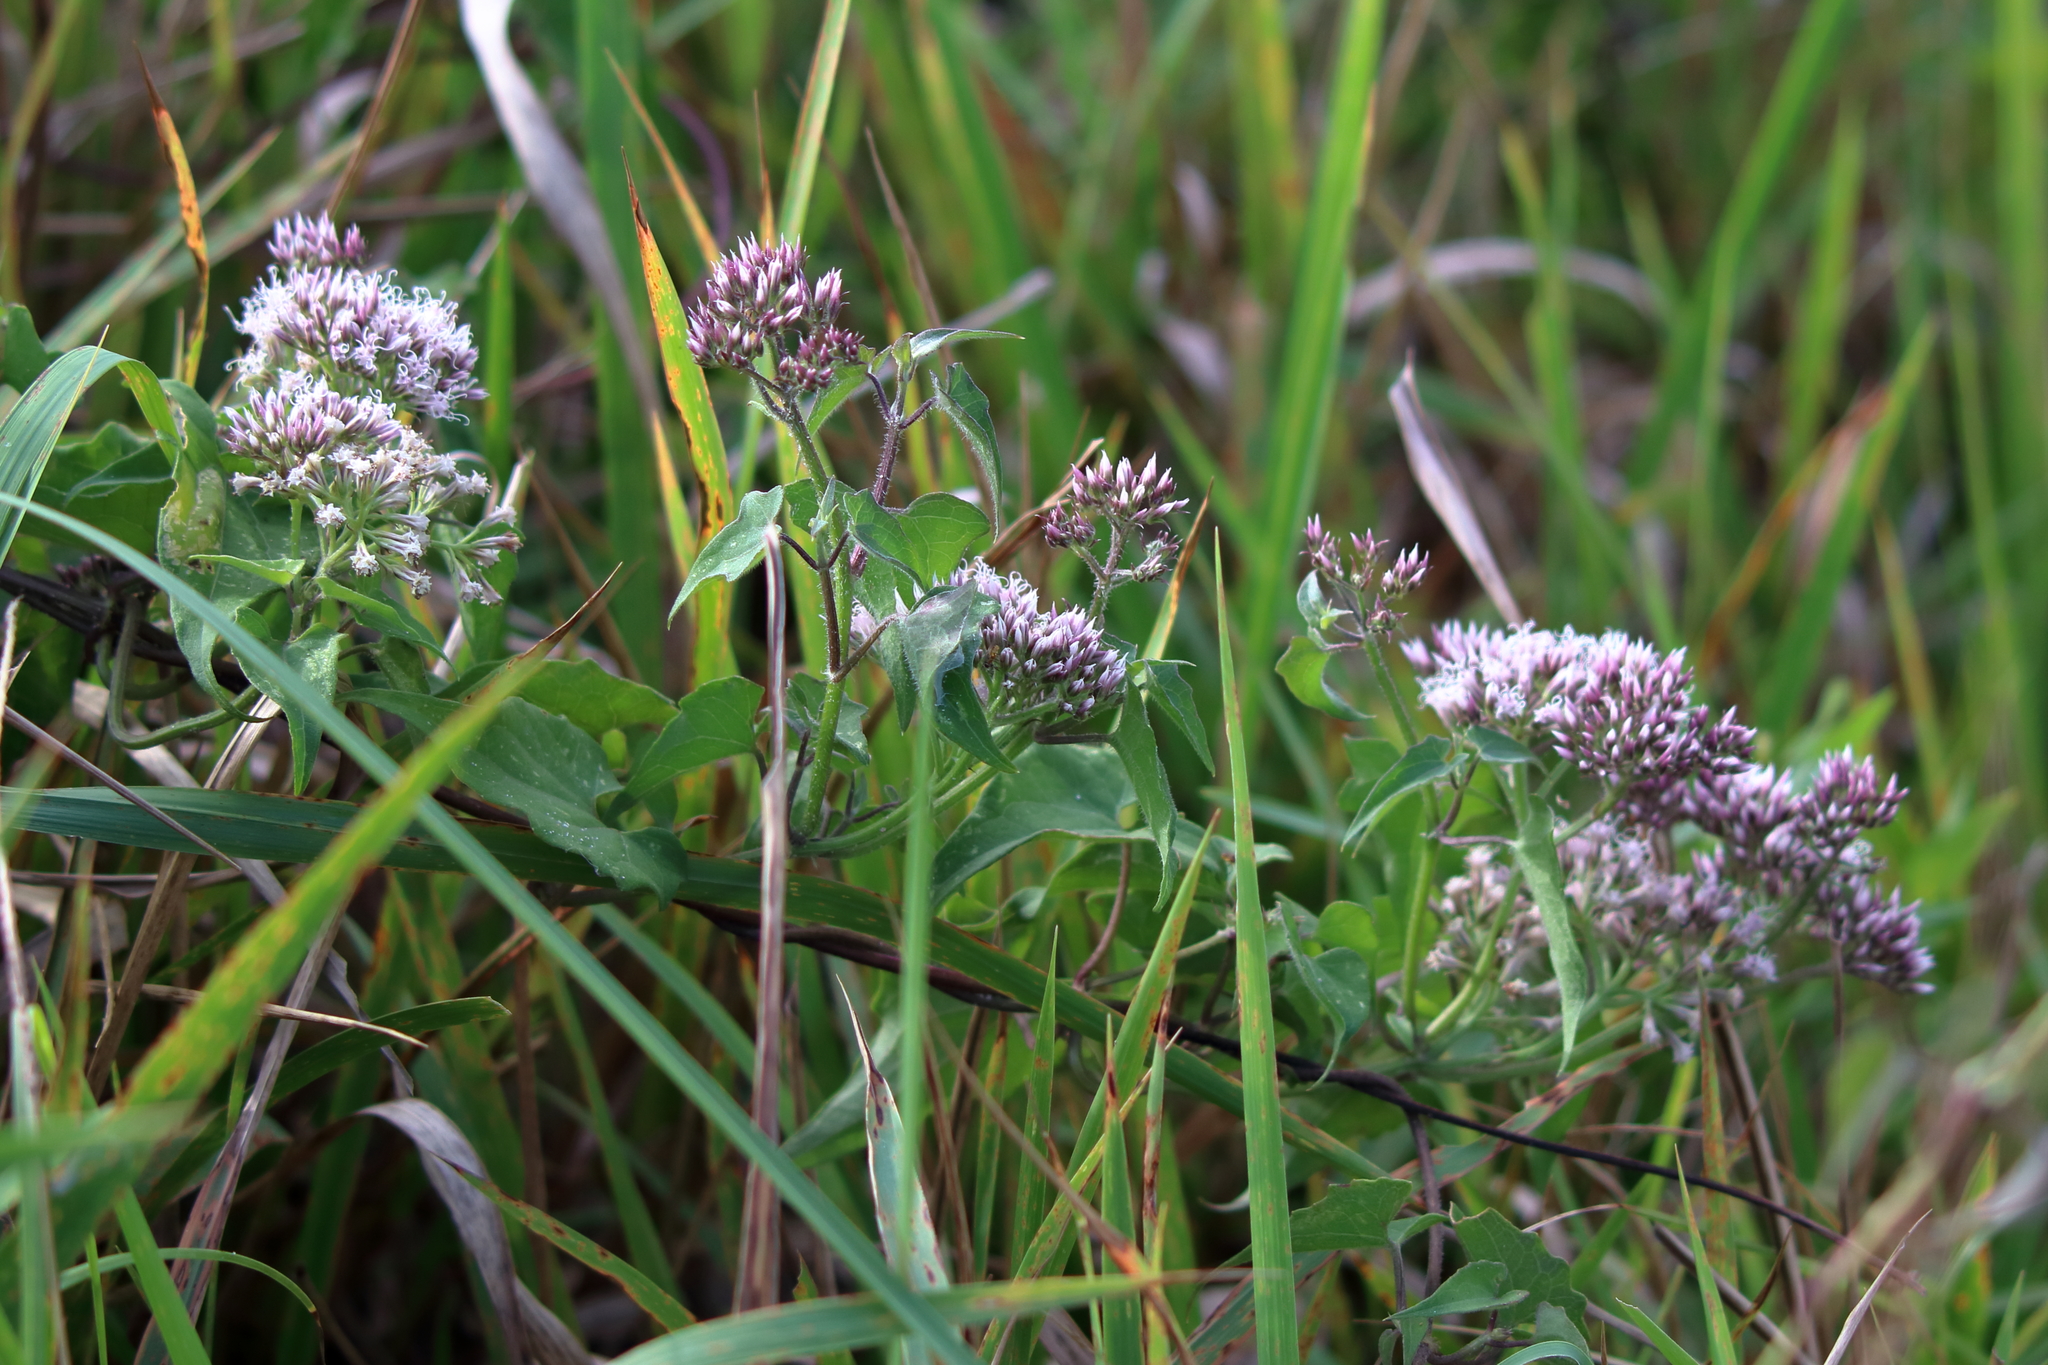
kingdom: Plantae
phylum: Tracheophyta
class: Magnoliopsida
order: Asterales
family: Asteraceae
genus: Mikania
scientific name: Mikania scandens
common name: Climbing hempvine
